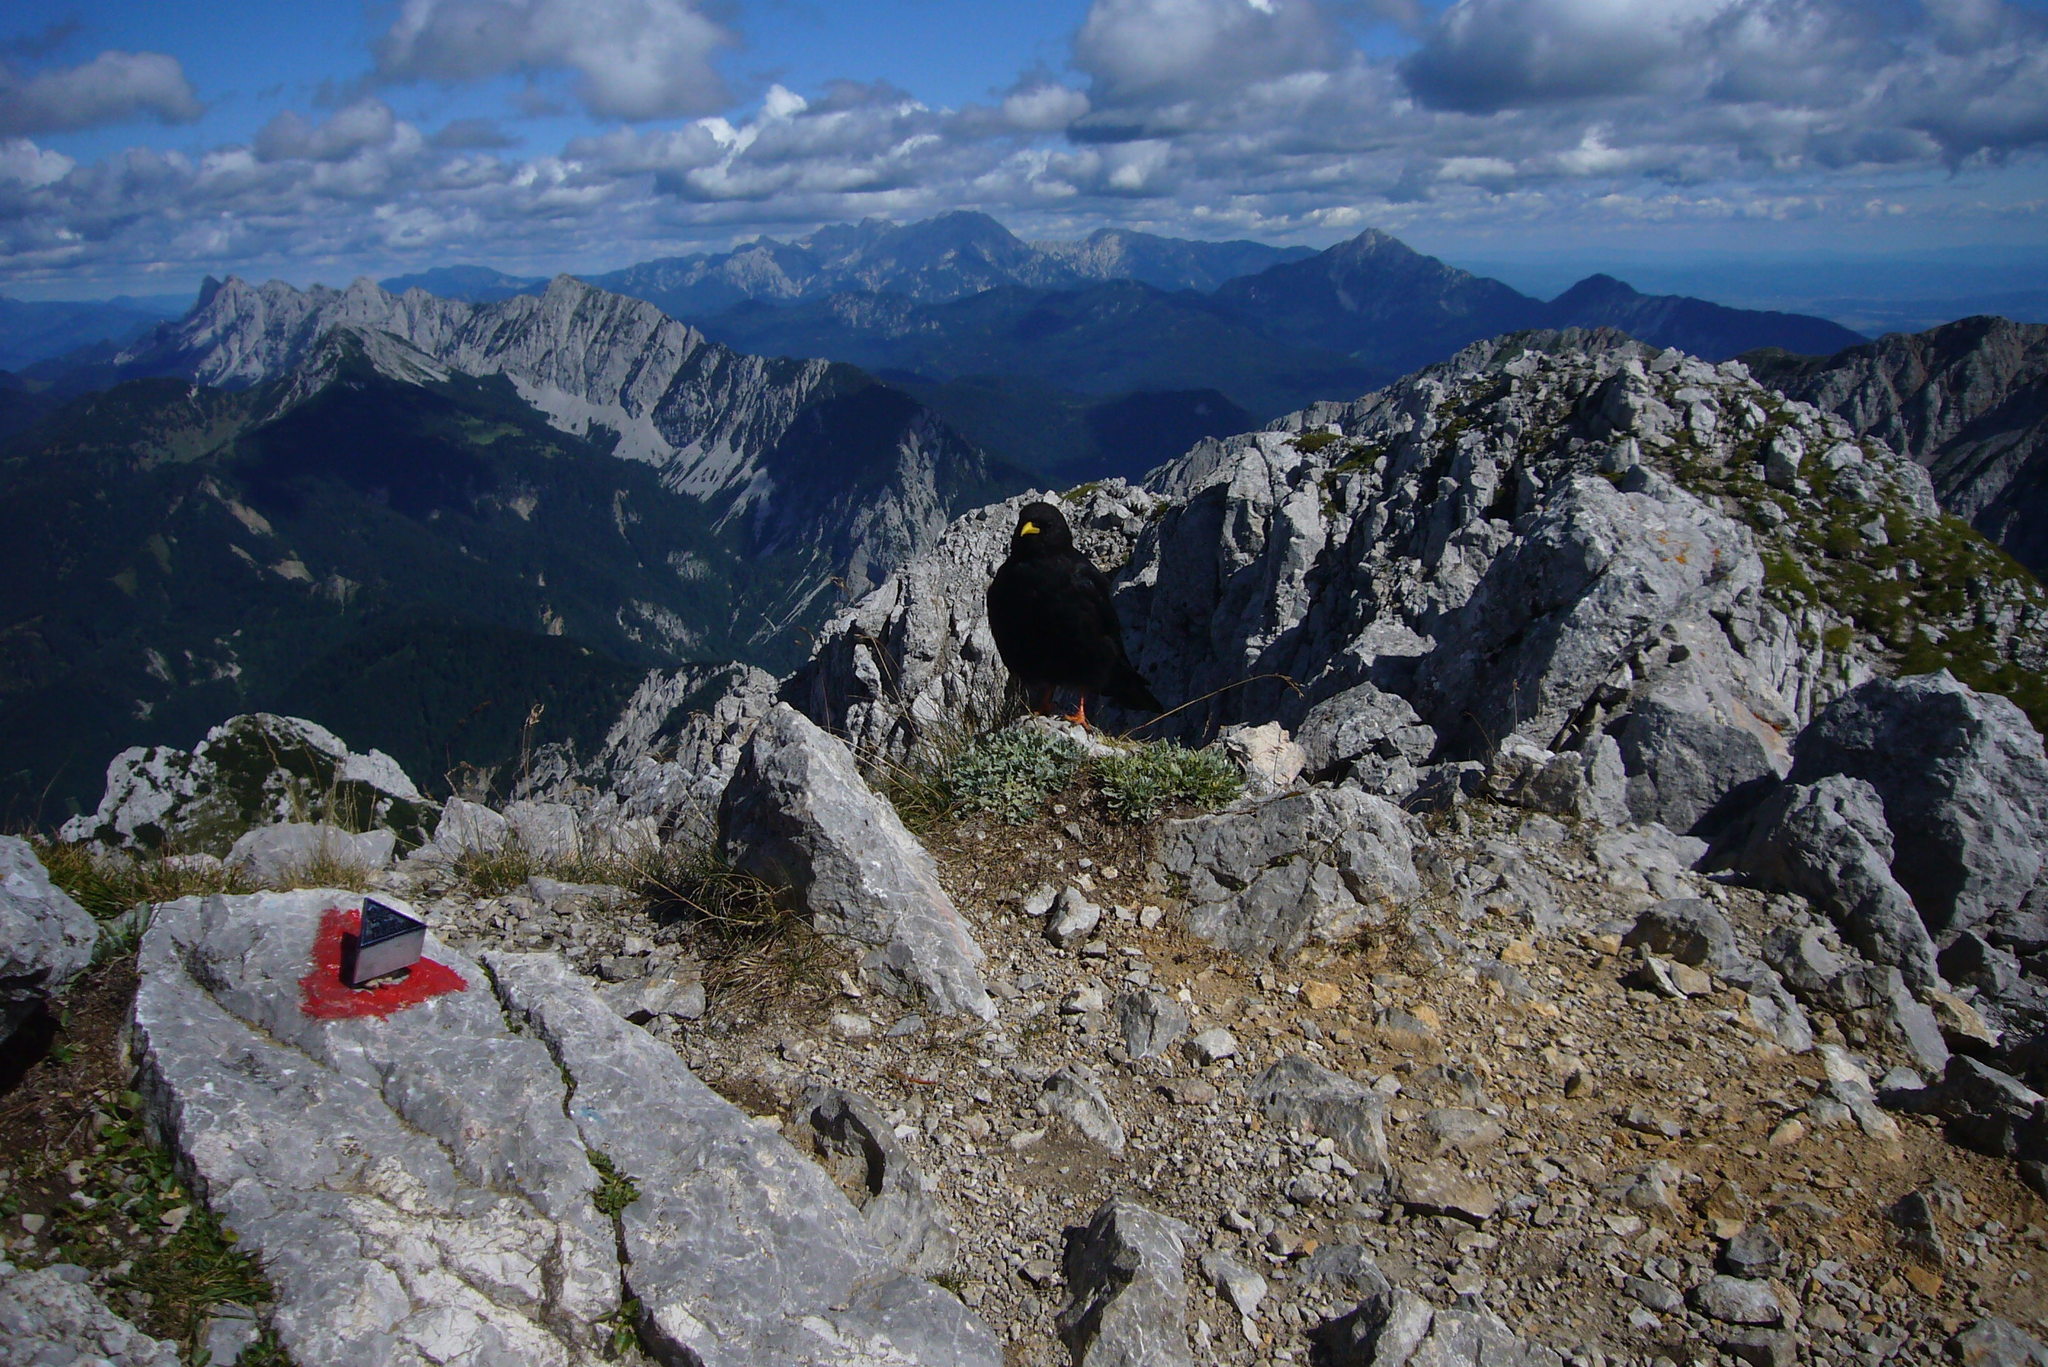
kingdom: Animalia
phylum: Chordata
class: Aves
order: Passeriformes
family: Corvidae
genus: Pyrrhocorax
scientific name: Pyrrhocorax graculus
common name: Alpine chough
